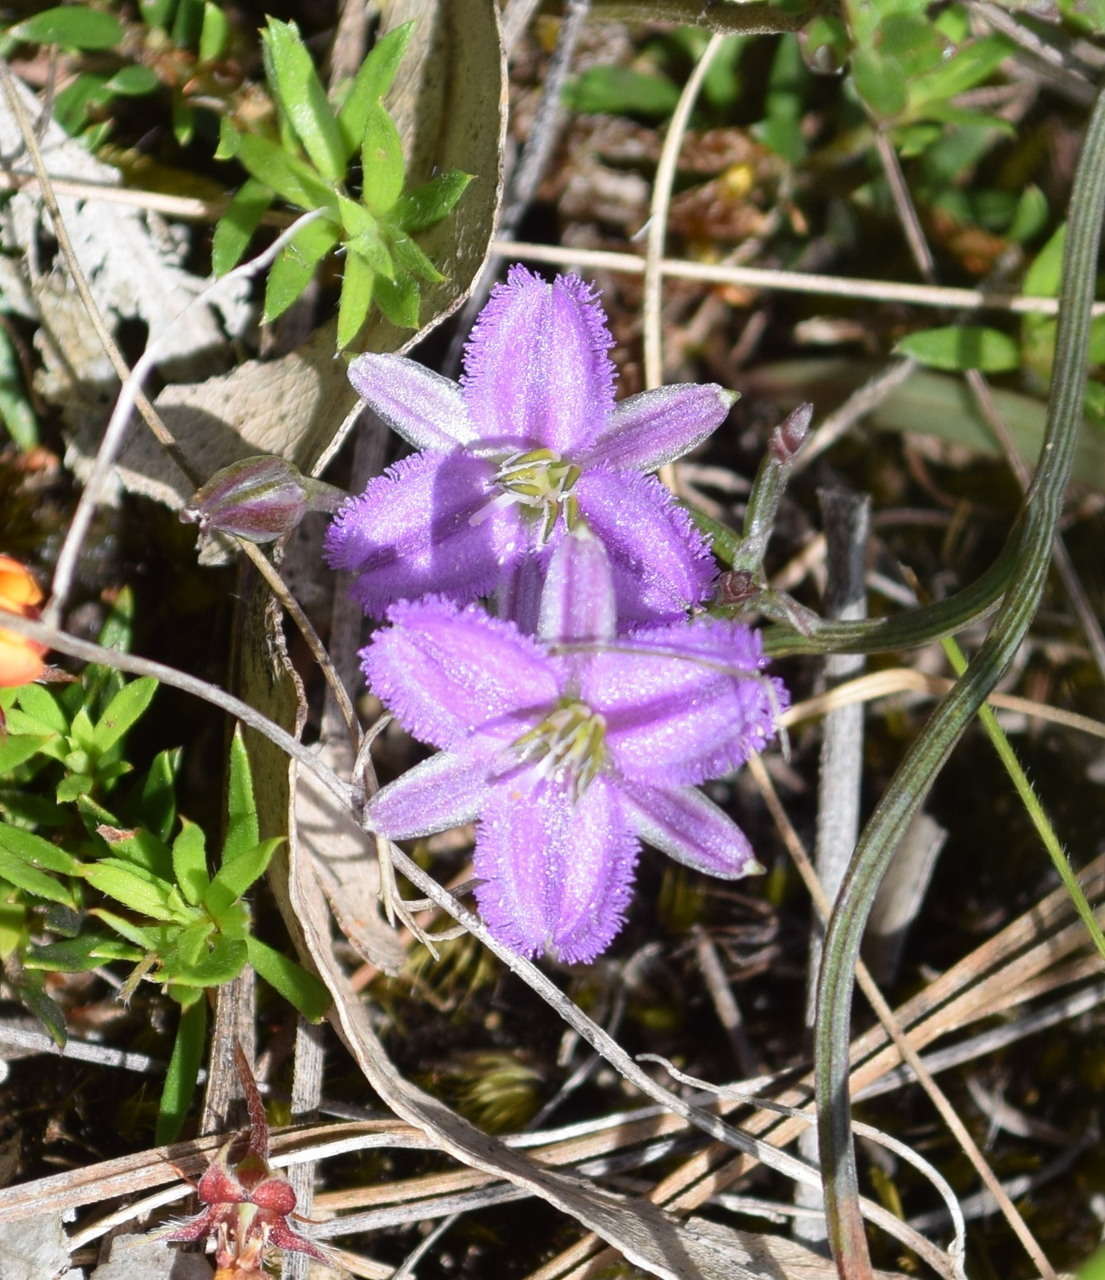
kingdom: Plantae
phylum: Tracheophyta
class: Liliopsida
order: Asparagales
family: Asparagaceae
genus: Thysanotus
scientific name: Thysanotus patersonii
